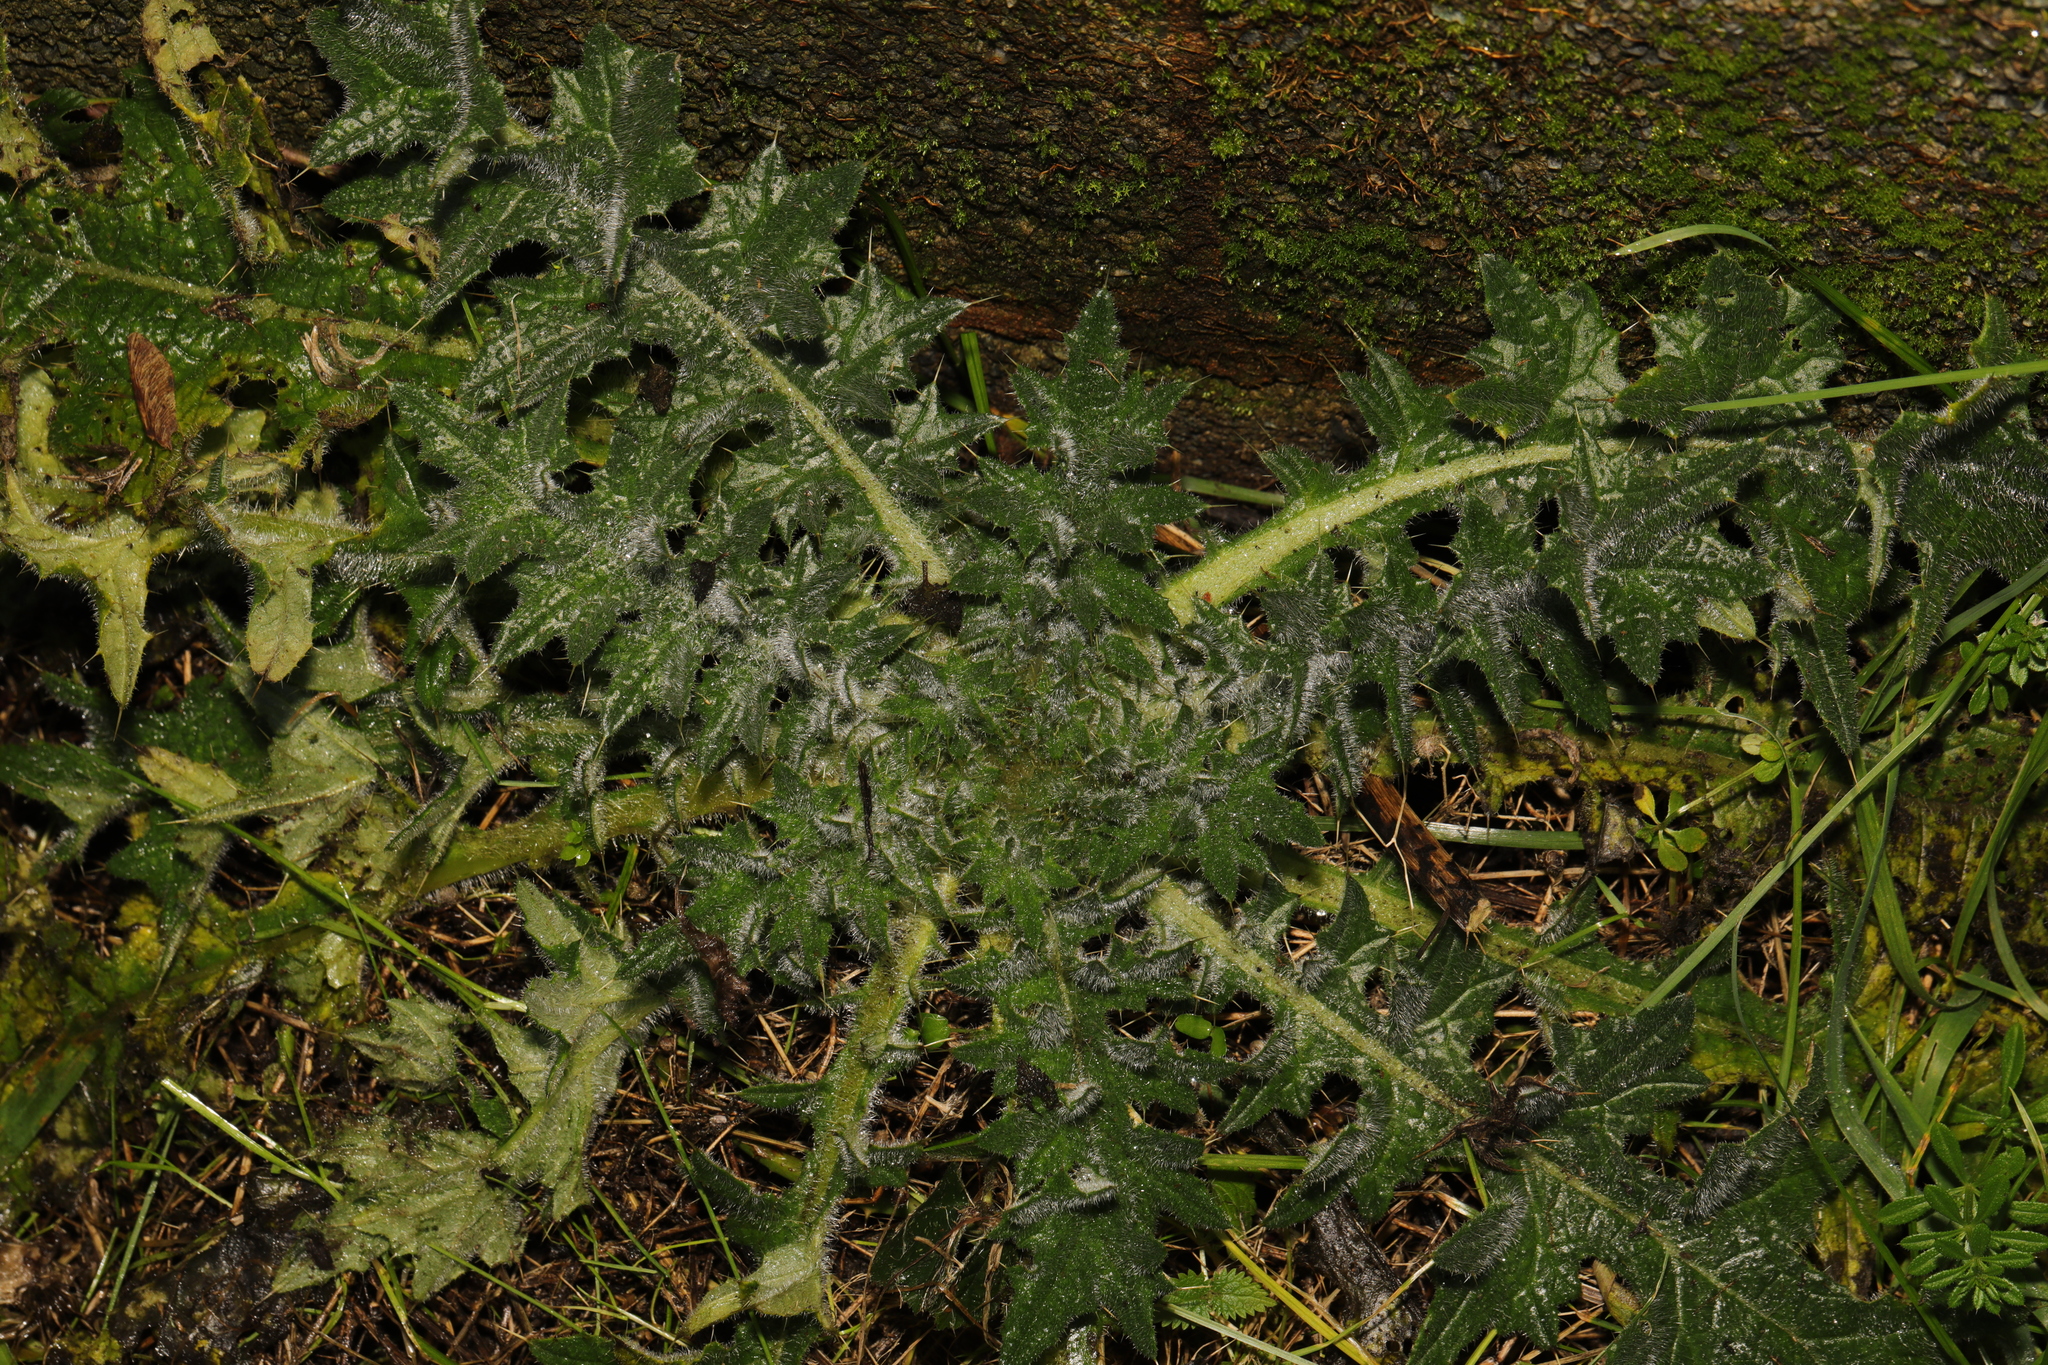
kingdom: Plantae
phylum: Tracheophyta
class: Magnoliopsida
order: Asterales
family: Asteraceae
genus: Cirsium
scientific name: Cirsium vulgare
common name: Bull thistle
